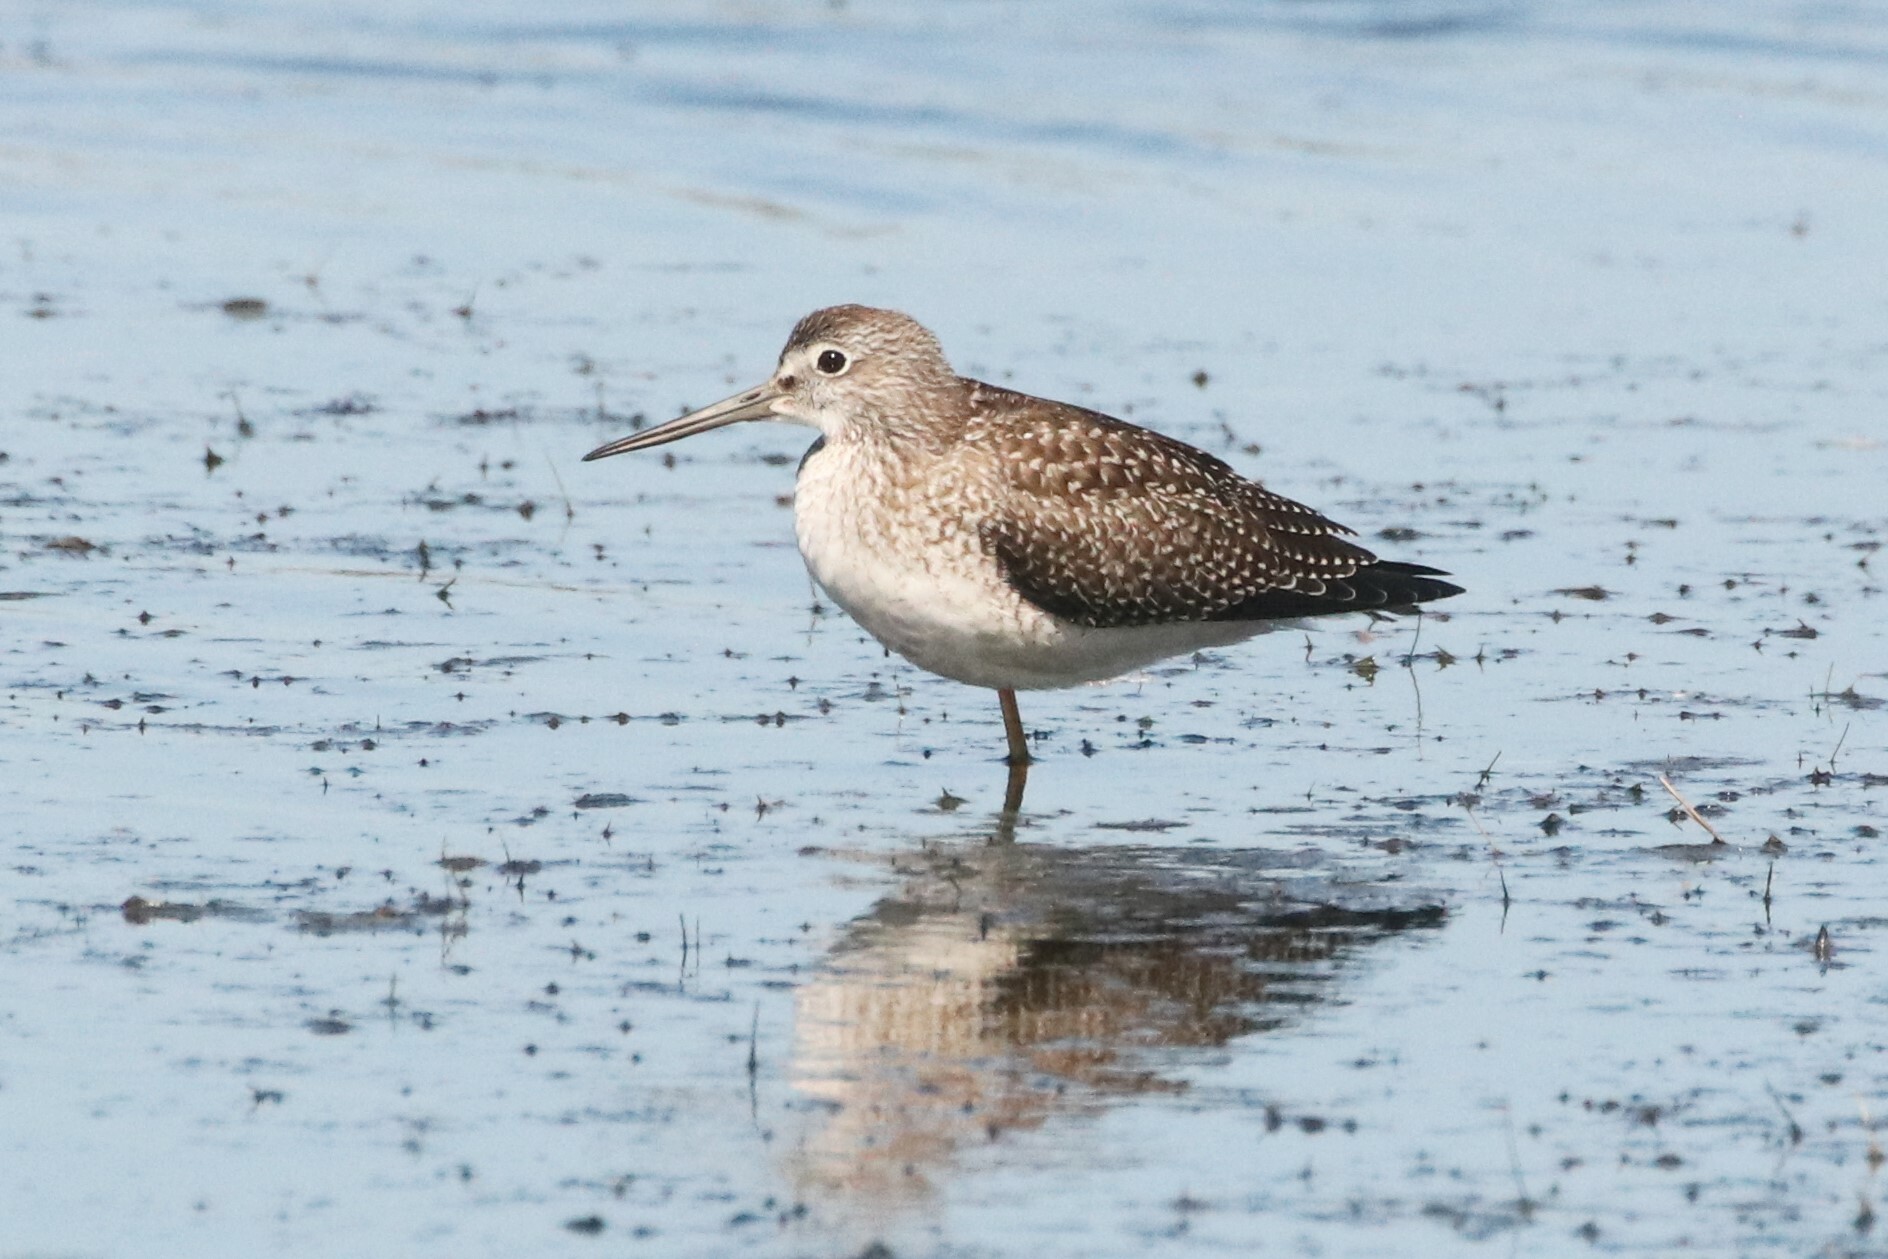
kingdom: Animalia
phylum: Chordata
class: Aves
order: Charadriiformes
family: Scolopacidae
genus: Tringa
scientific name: Tringa melanoleuca
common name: Greater yellowlegs
